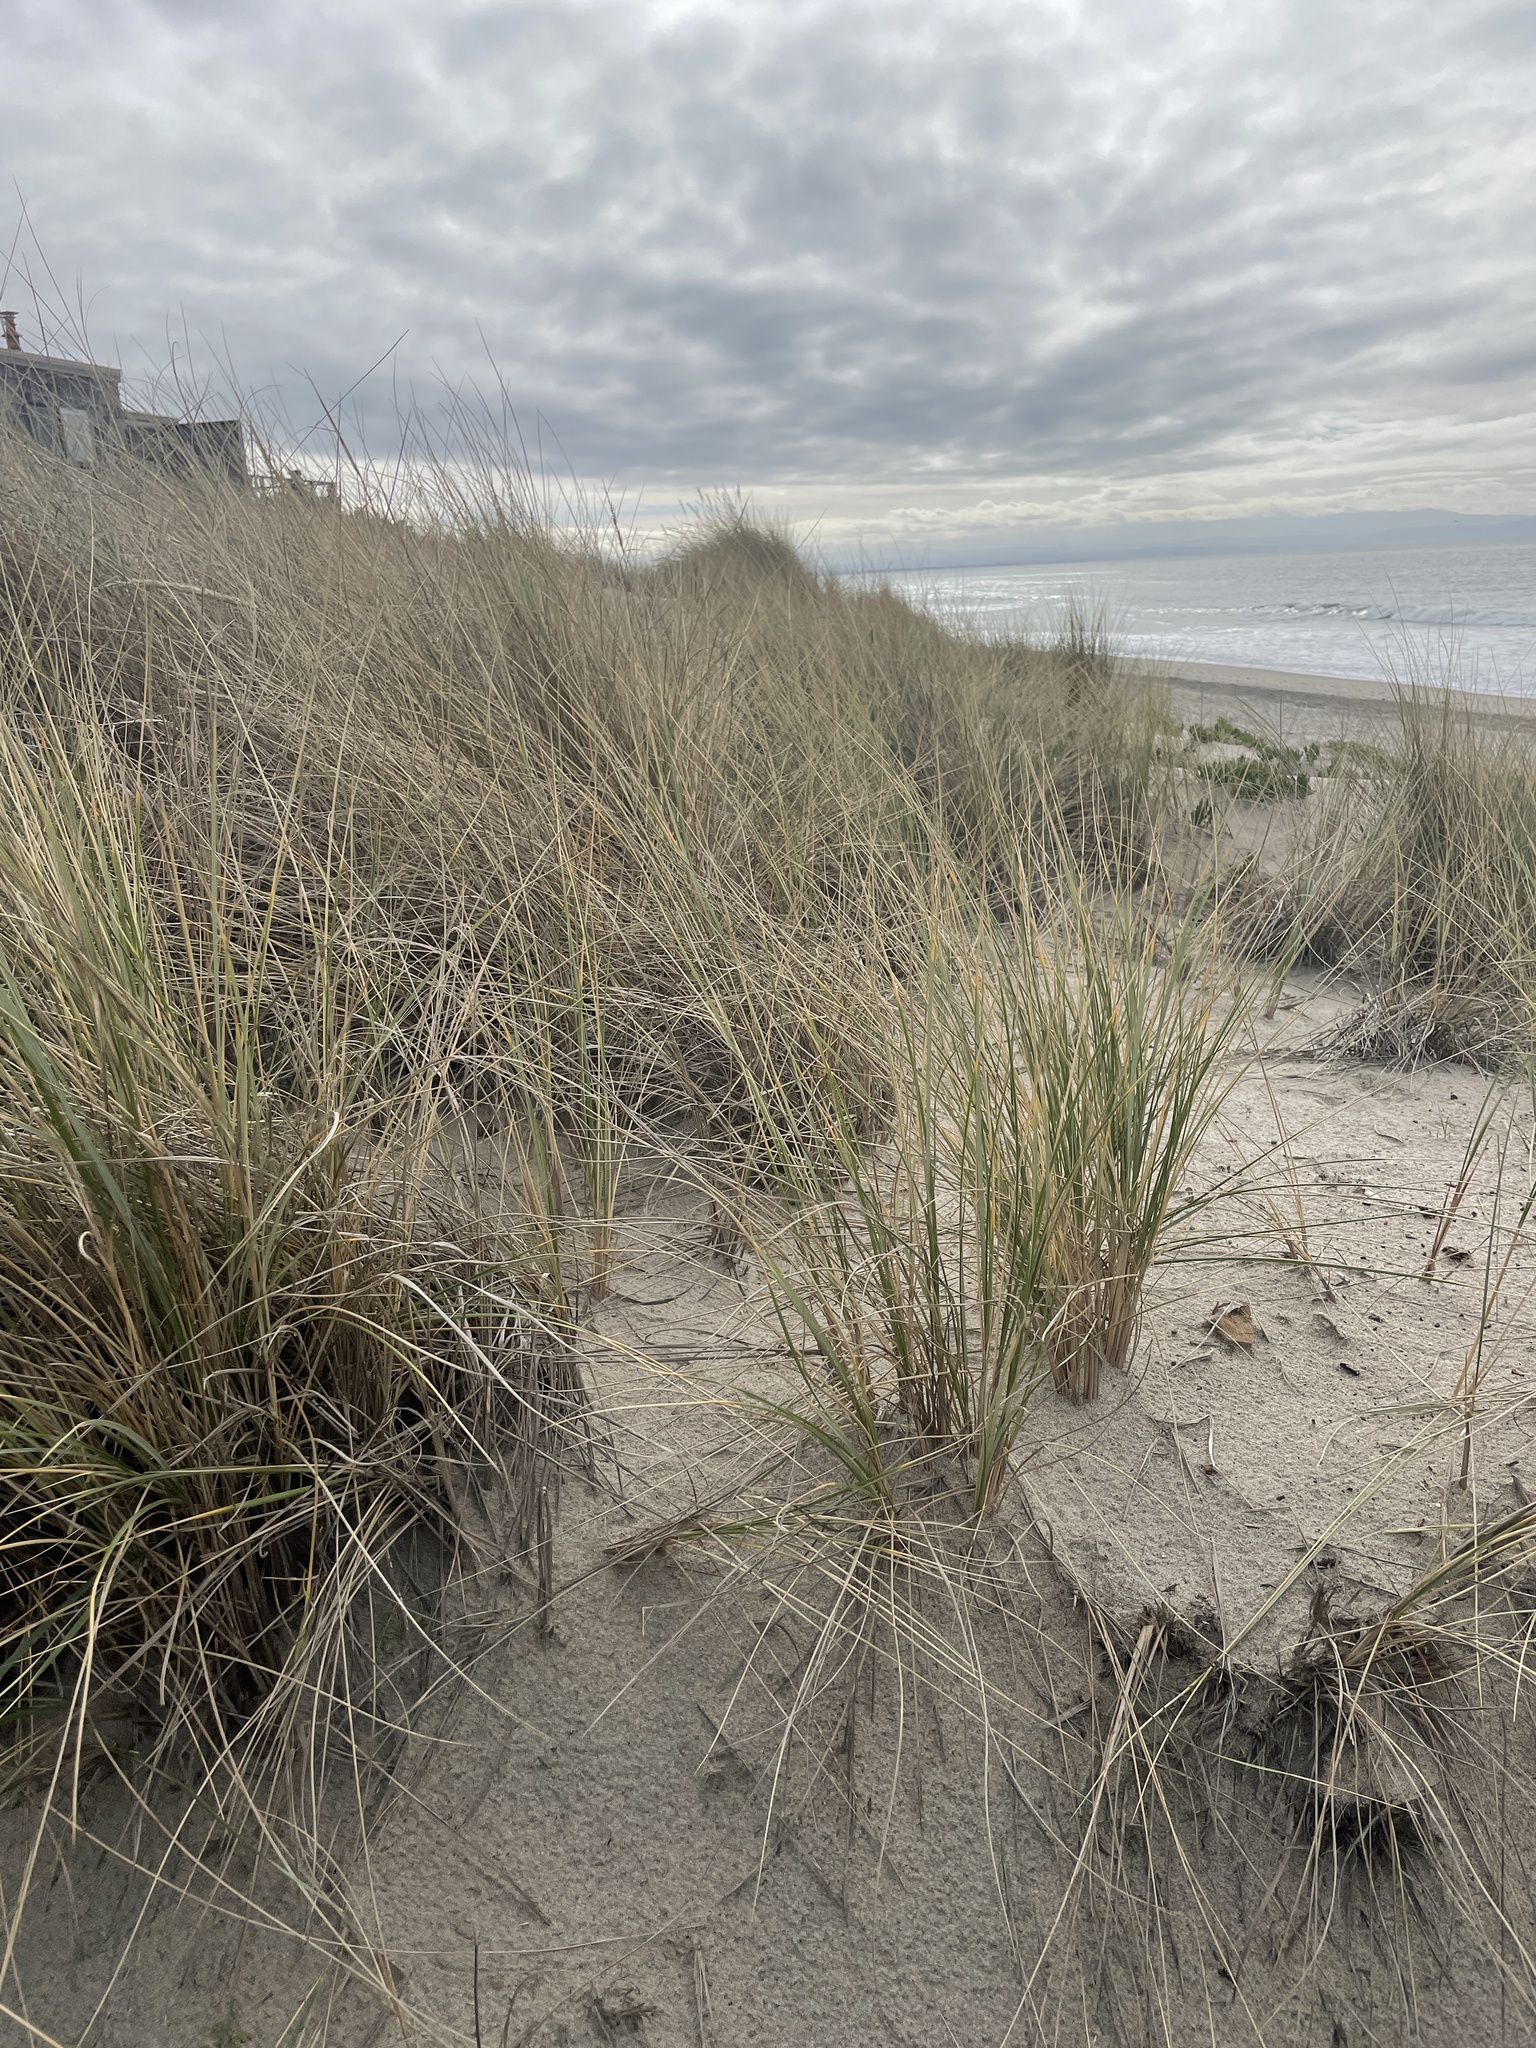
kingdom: Plantae
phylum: Tracheophyta
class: Liliopsida
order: Poales
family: Poaceae
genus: Calamagrostis
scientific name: Calamagrostis arenaria
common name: European beachgrass
